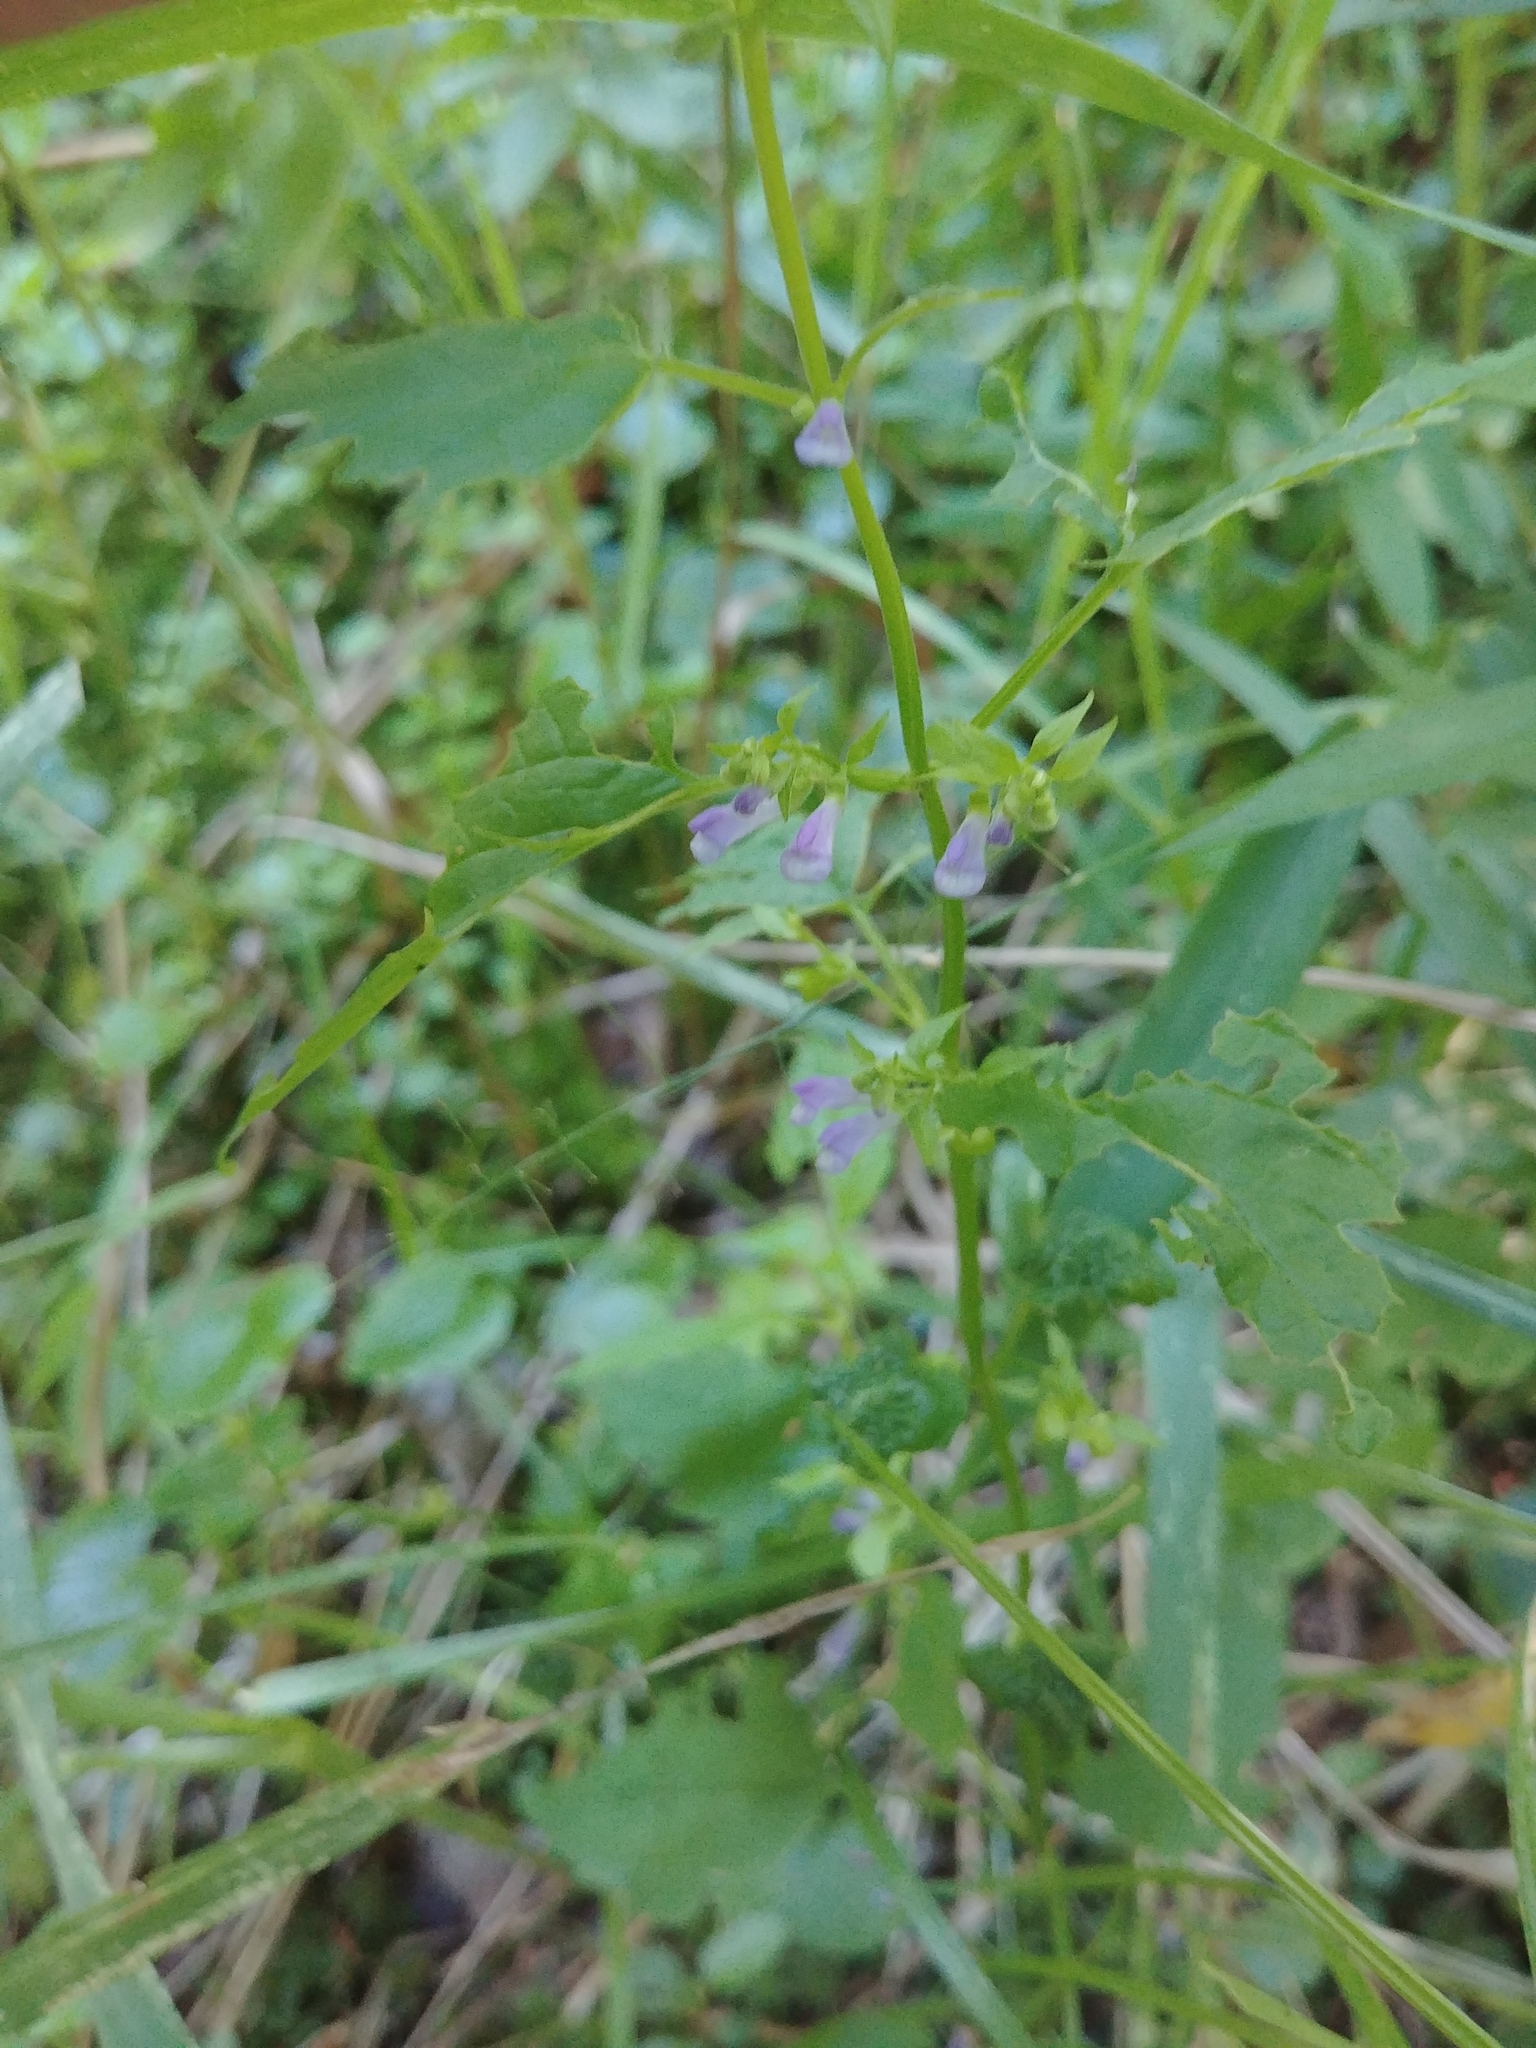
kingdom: Plantae
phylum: Tracheophyta
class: Magnoliopsida
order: Lamiales
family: Lamiaceae
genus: Scutellaria
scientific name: Scutellaria lateriflora
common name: Blue skullcap
